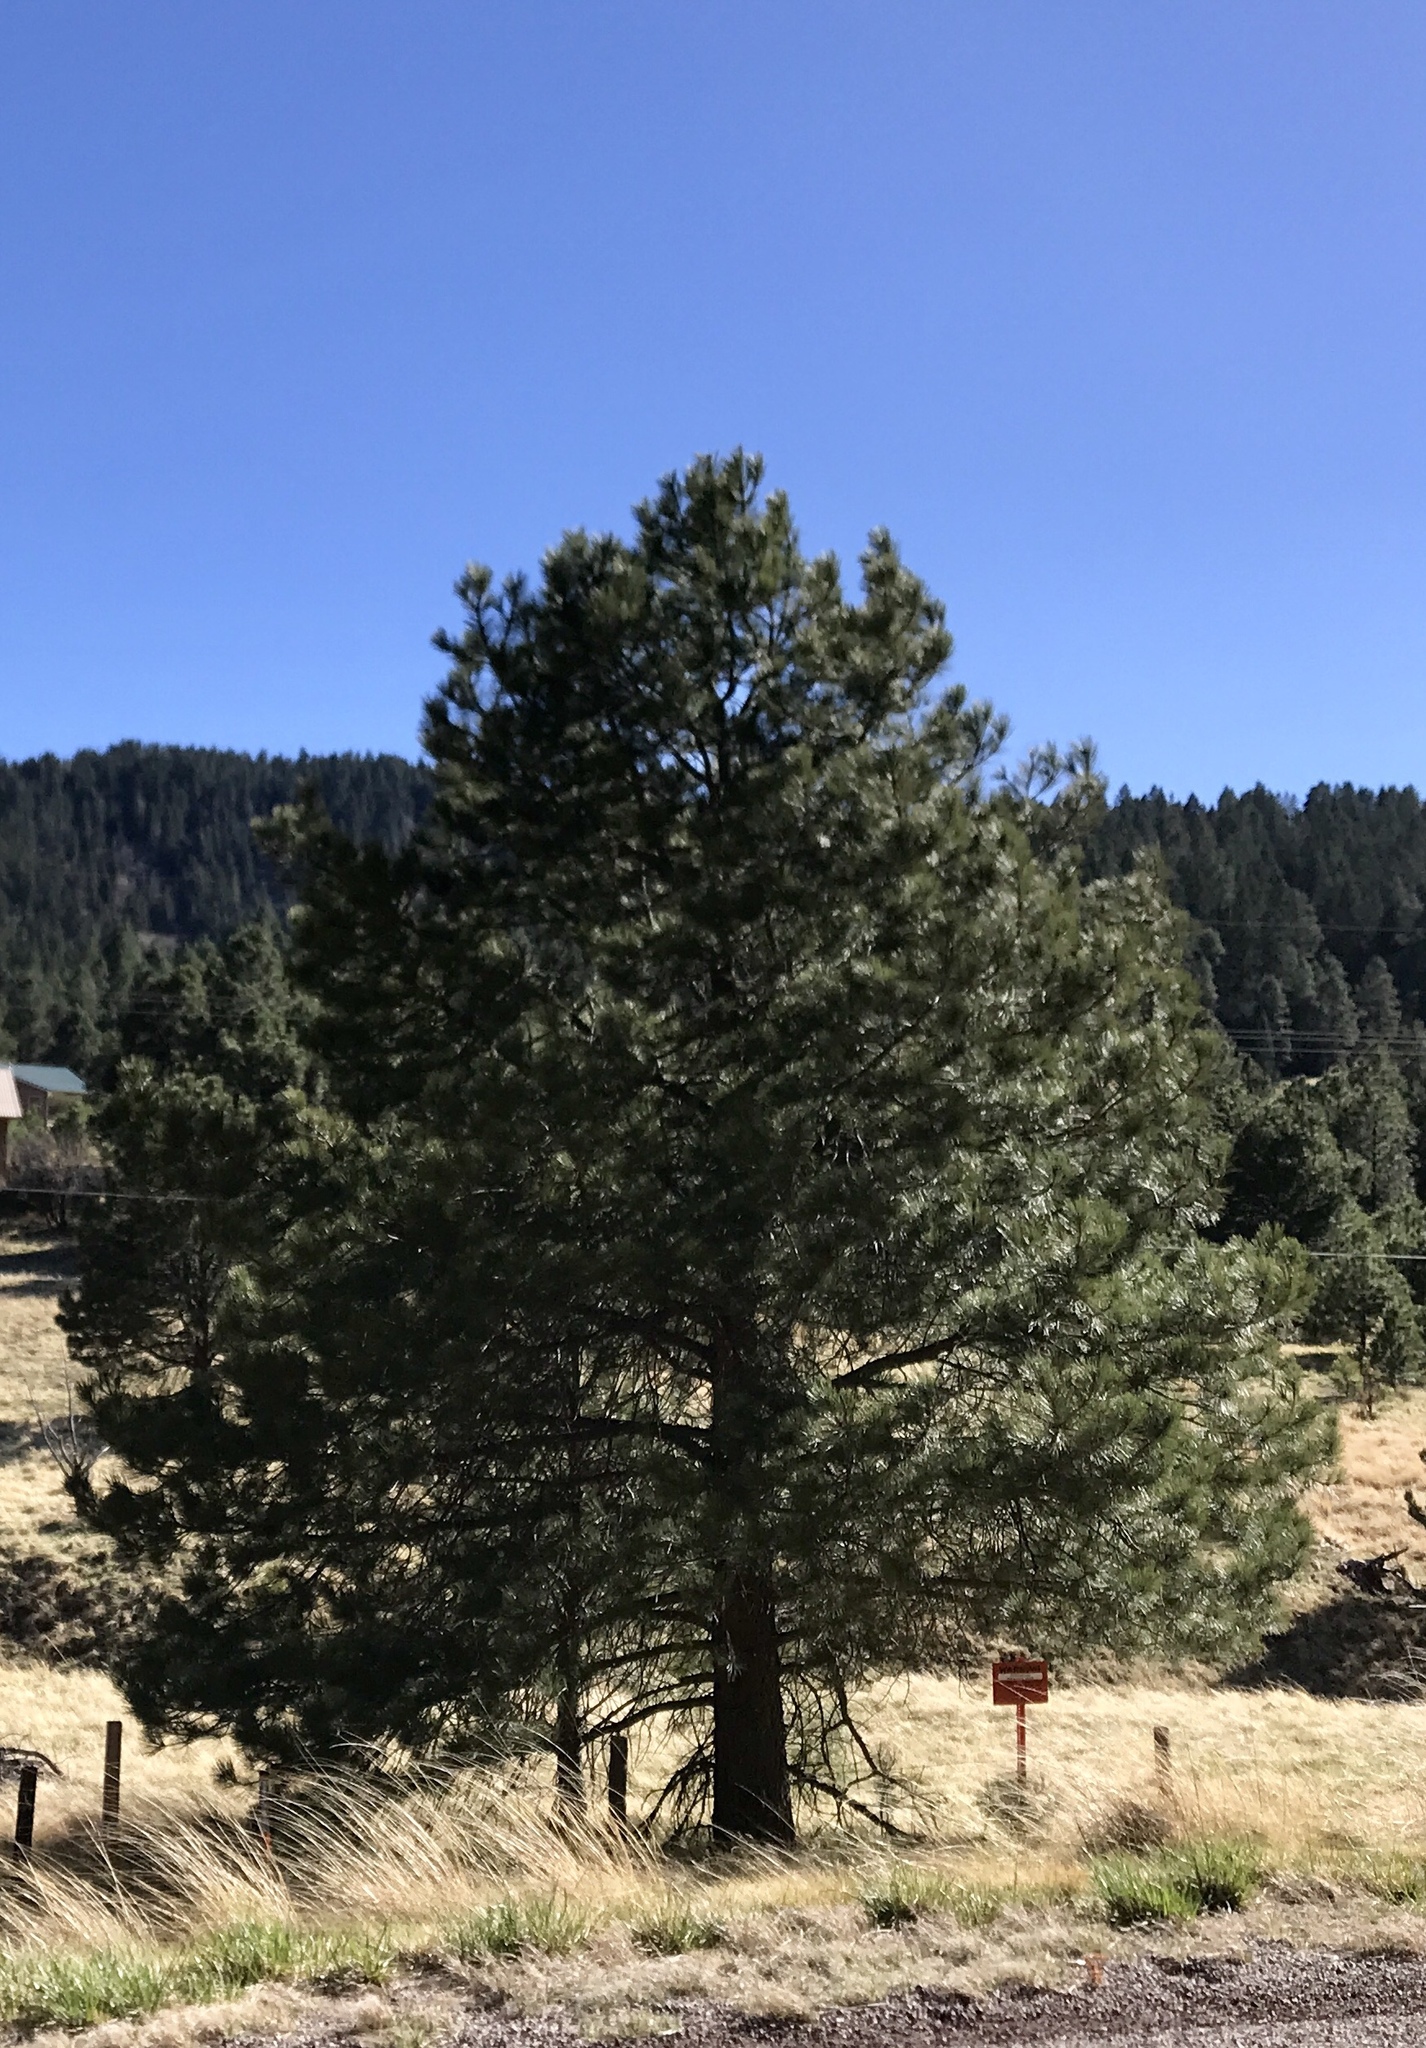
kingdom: Plantae
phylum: Tracheophyta
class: Pinopsida
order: Pinales
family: Pinaceae
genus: Pinus
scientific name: Pinus ponderosa
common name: Western yellow-pine
